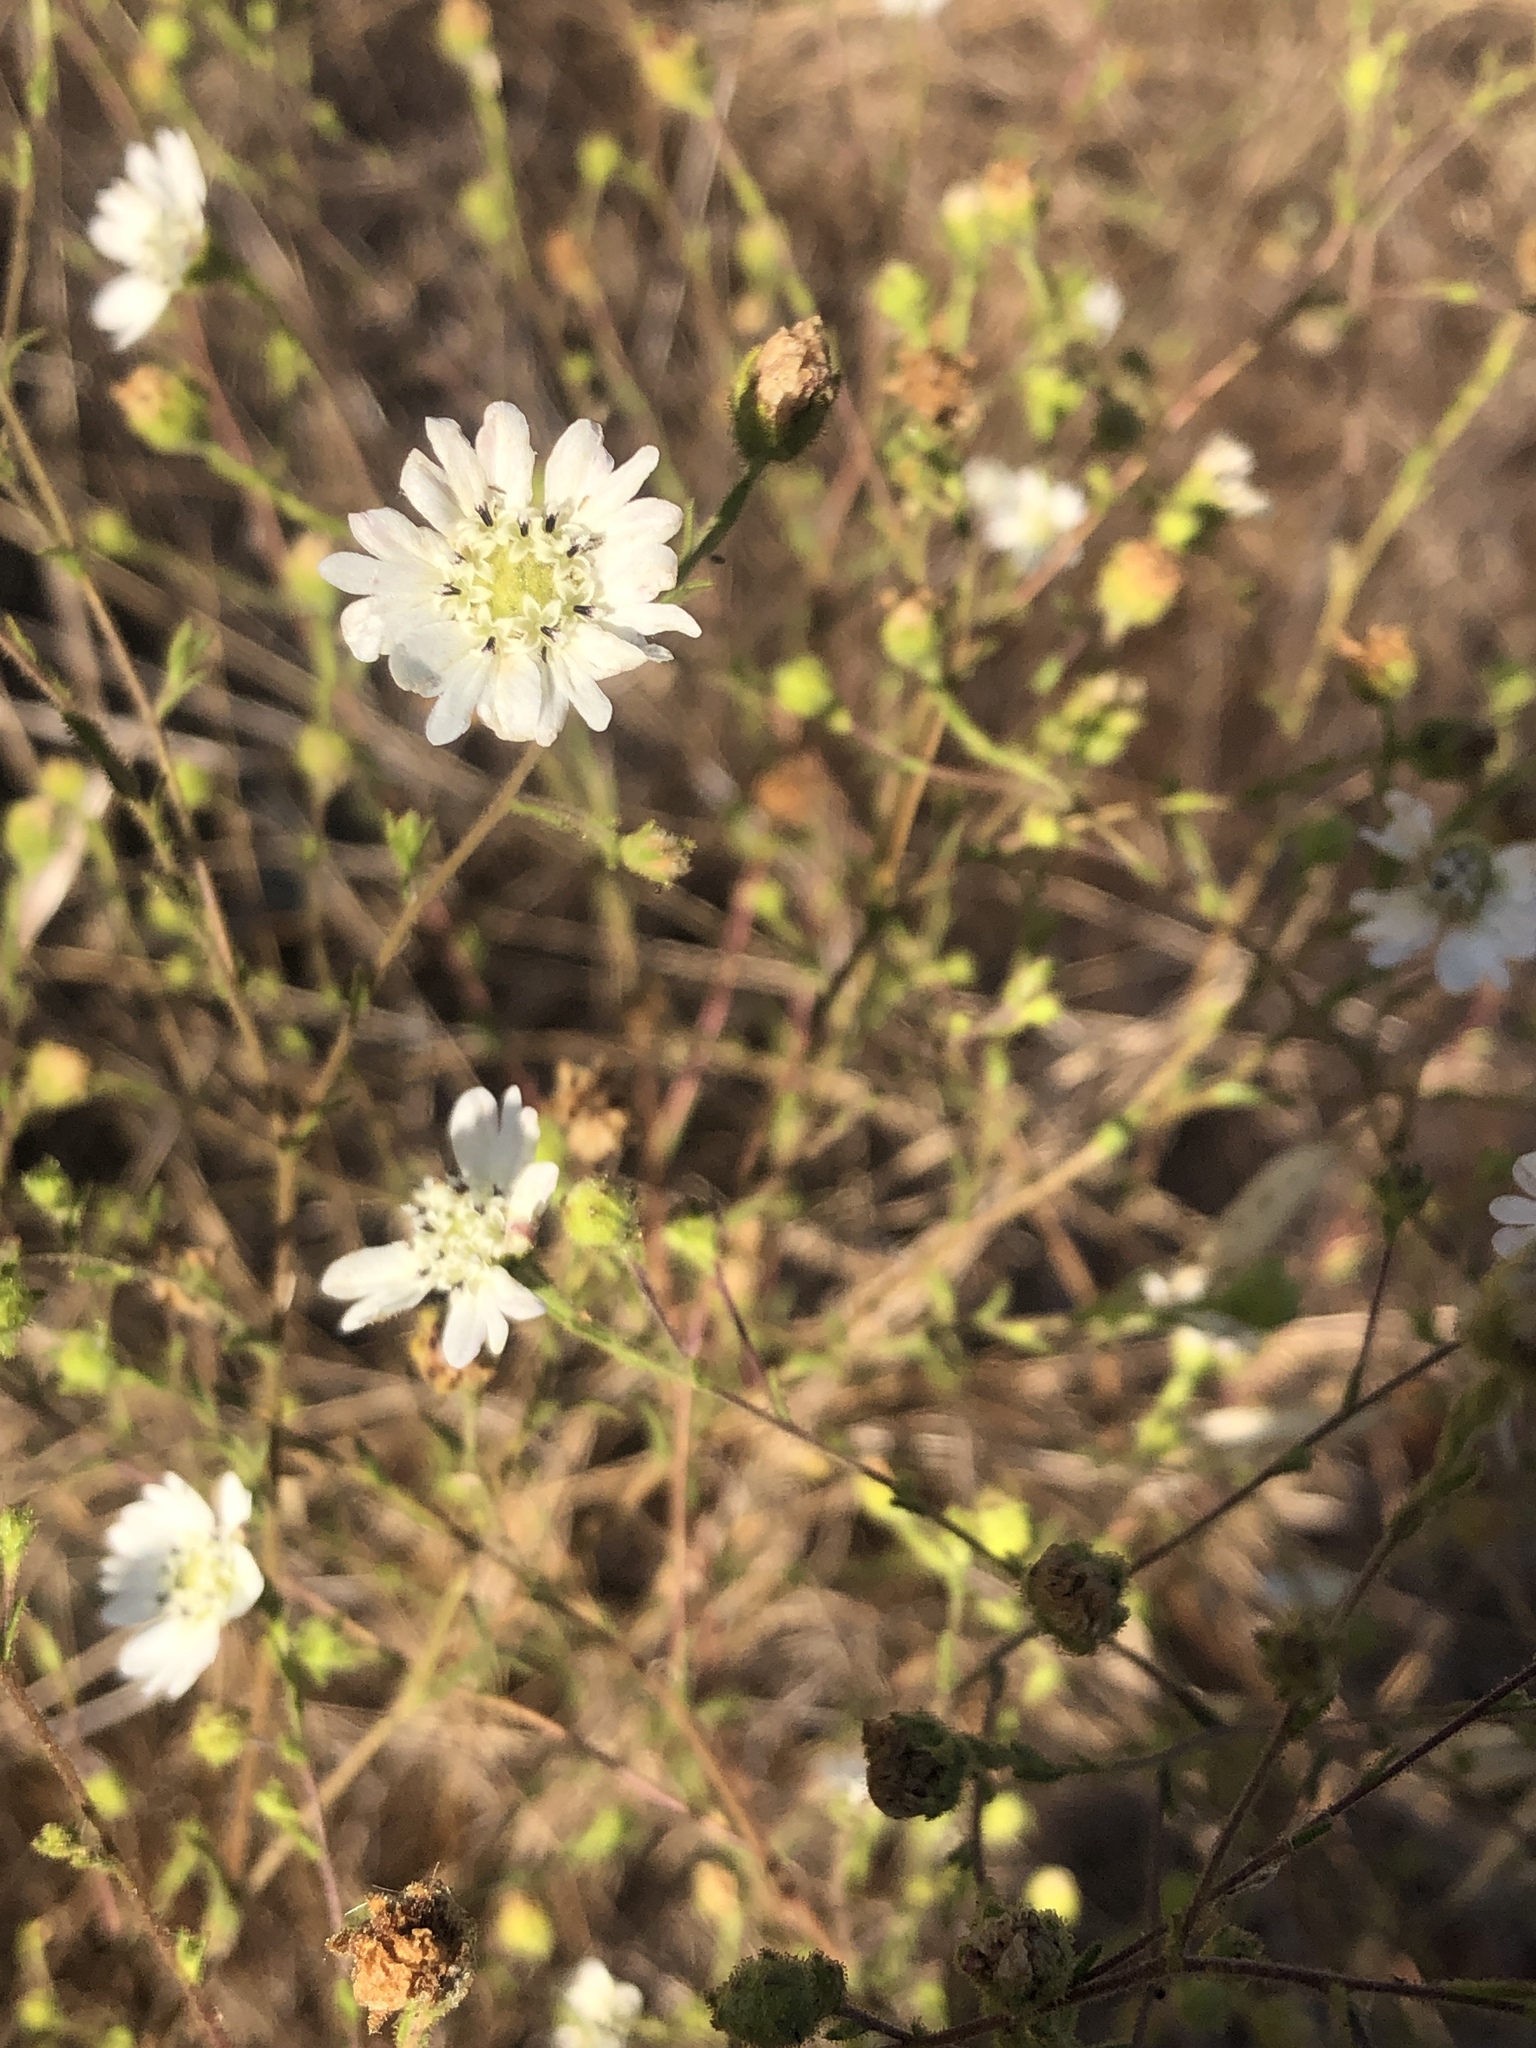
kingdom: Plantae
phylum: Tracheophyta
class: Magnoliopsida
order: Asterales
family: Asteraceae
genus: Hemizonia
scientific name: Hemizonia congesta
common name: Hayfield tarweed
